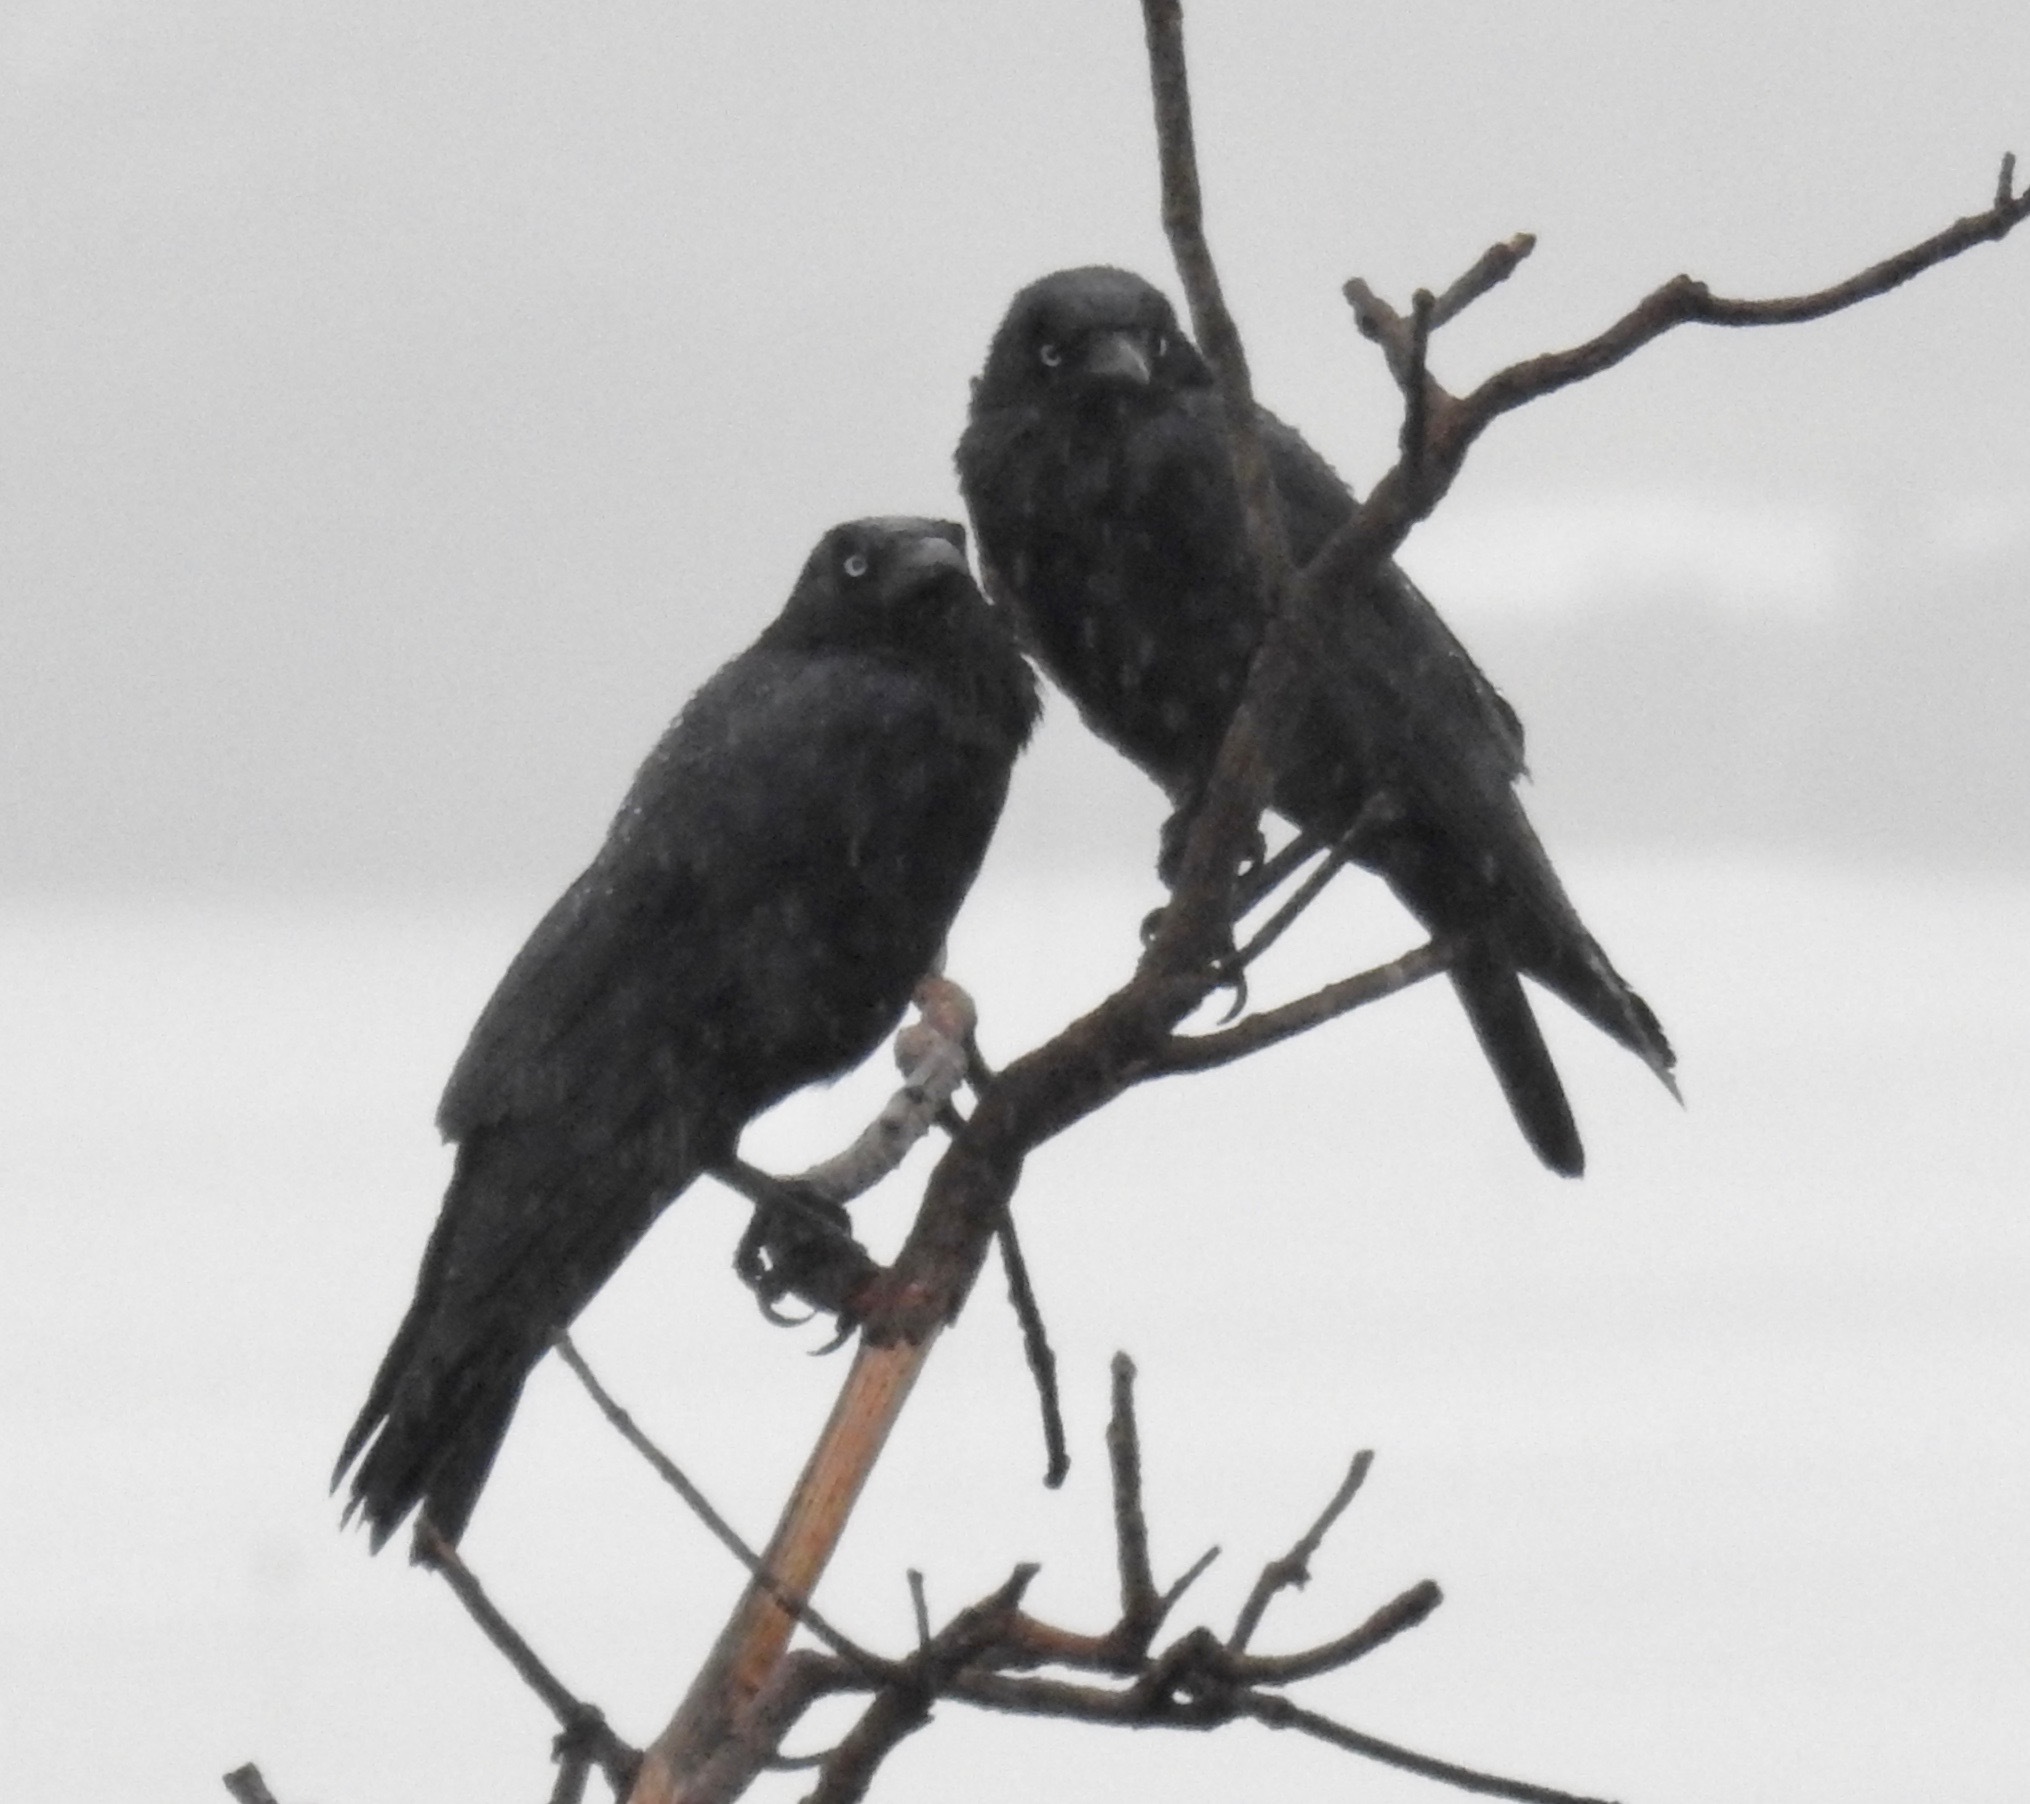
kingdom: Animalia
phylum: Chordata
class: Aves
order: Passeriformes
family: Corvidae
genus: Corvus
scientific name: Corvus coronoides
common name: Australian raven
